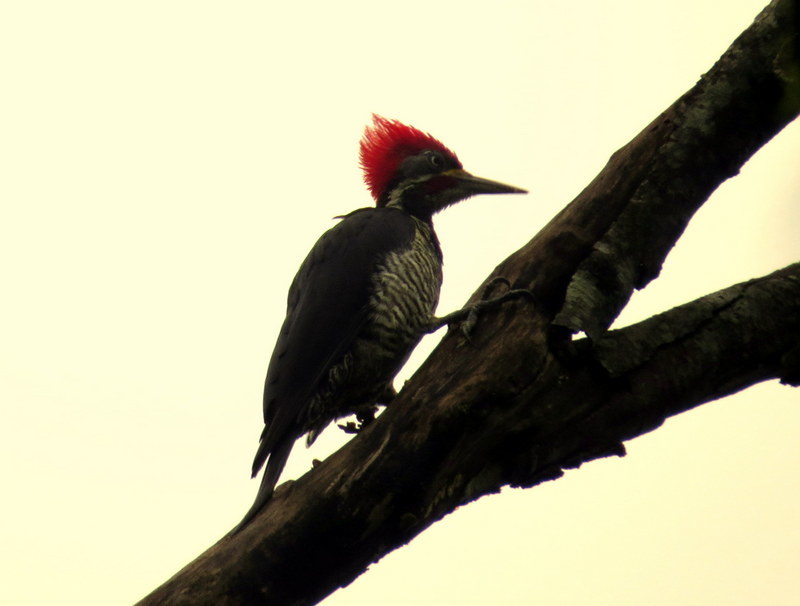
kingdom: Animalia
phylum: Chordata
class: Aves
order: Piciformes
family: Picidae
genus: Dryocopus
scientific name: Dryocopus lineatus
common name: Lineated woodpecker
